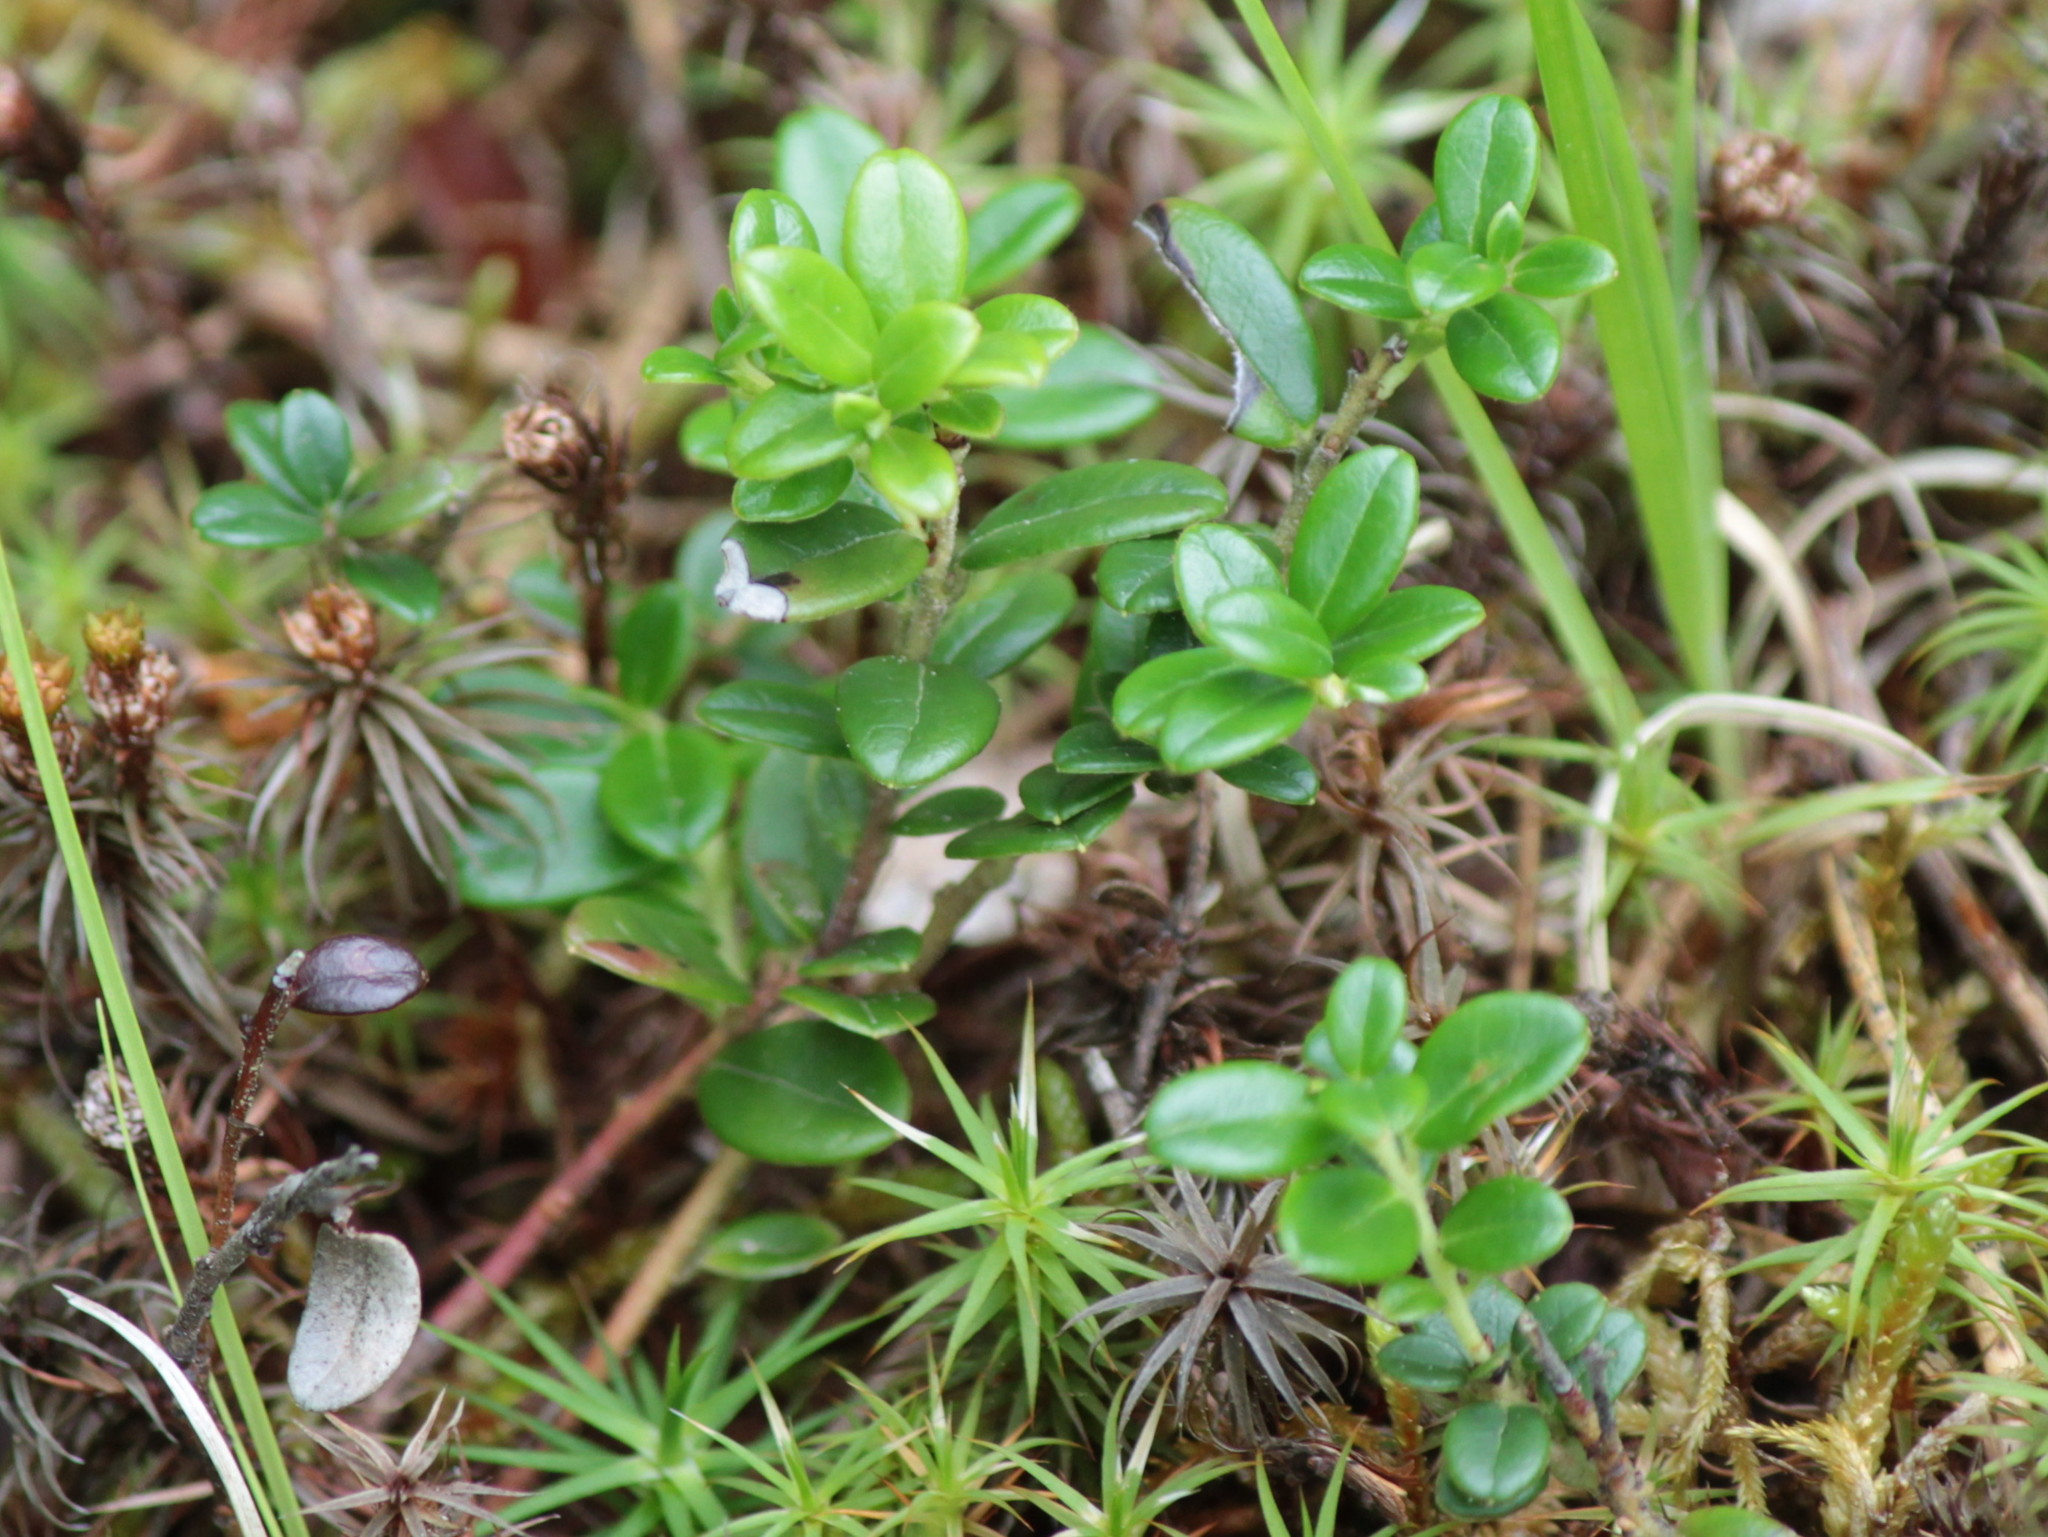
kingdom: Plantae
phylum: Tracheophyta
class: Magnoliopsida
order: Ericales
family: Ericaceae
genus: Vaccinium
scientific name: Vaccinium vitis-idaea
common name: Cowberry
